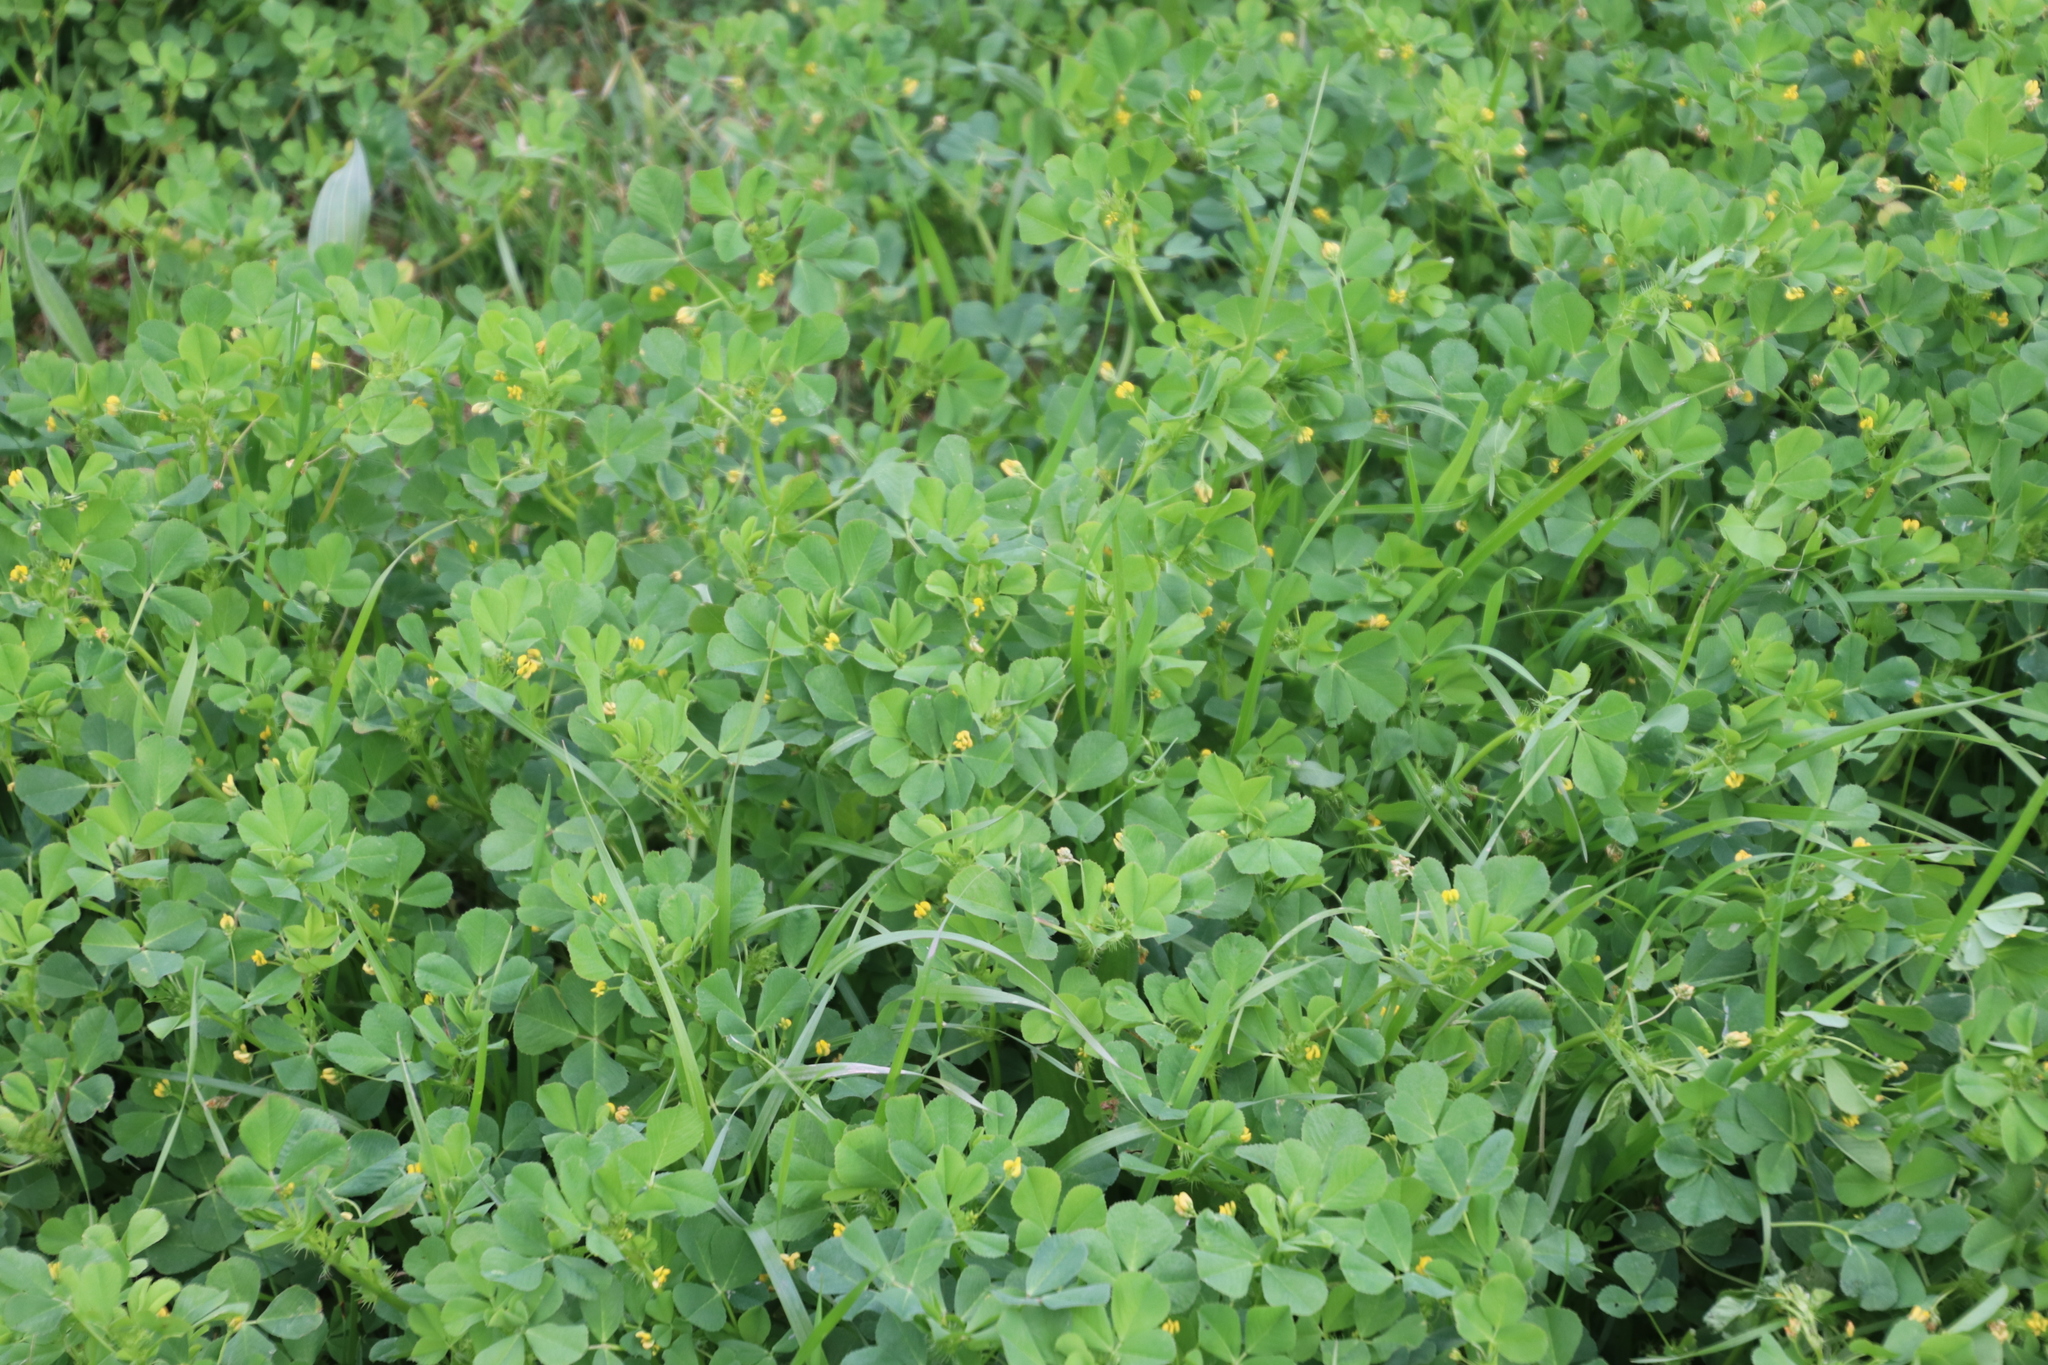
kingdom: Plantae
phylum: Tracheophyta
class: Magnoliopsida
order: Fabales
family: Fabaceae
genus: Medicago
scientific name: Medicago polymorpha
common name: Burclover
